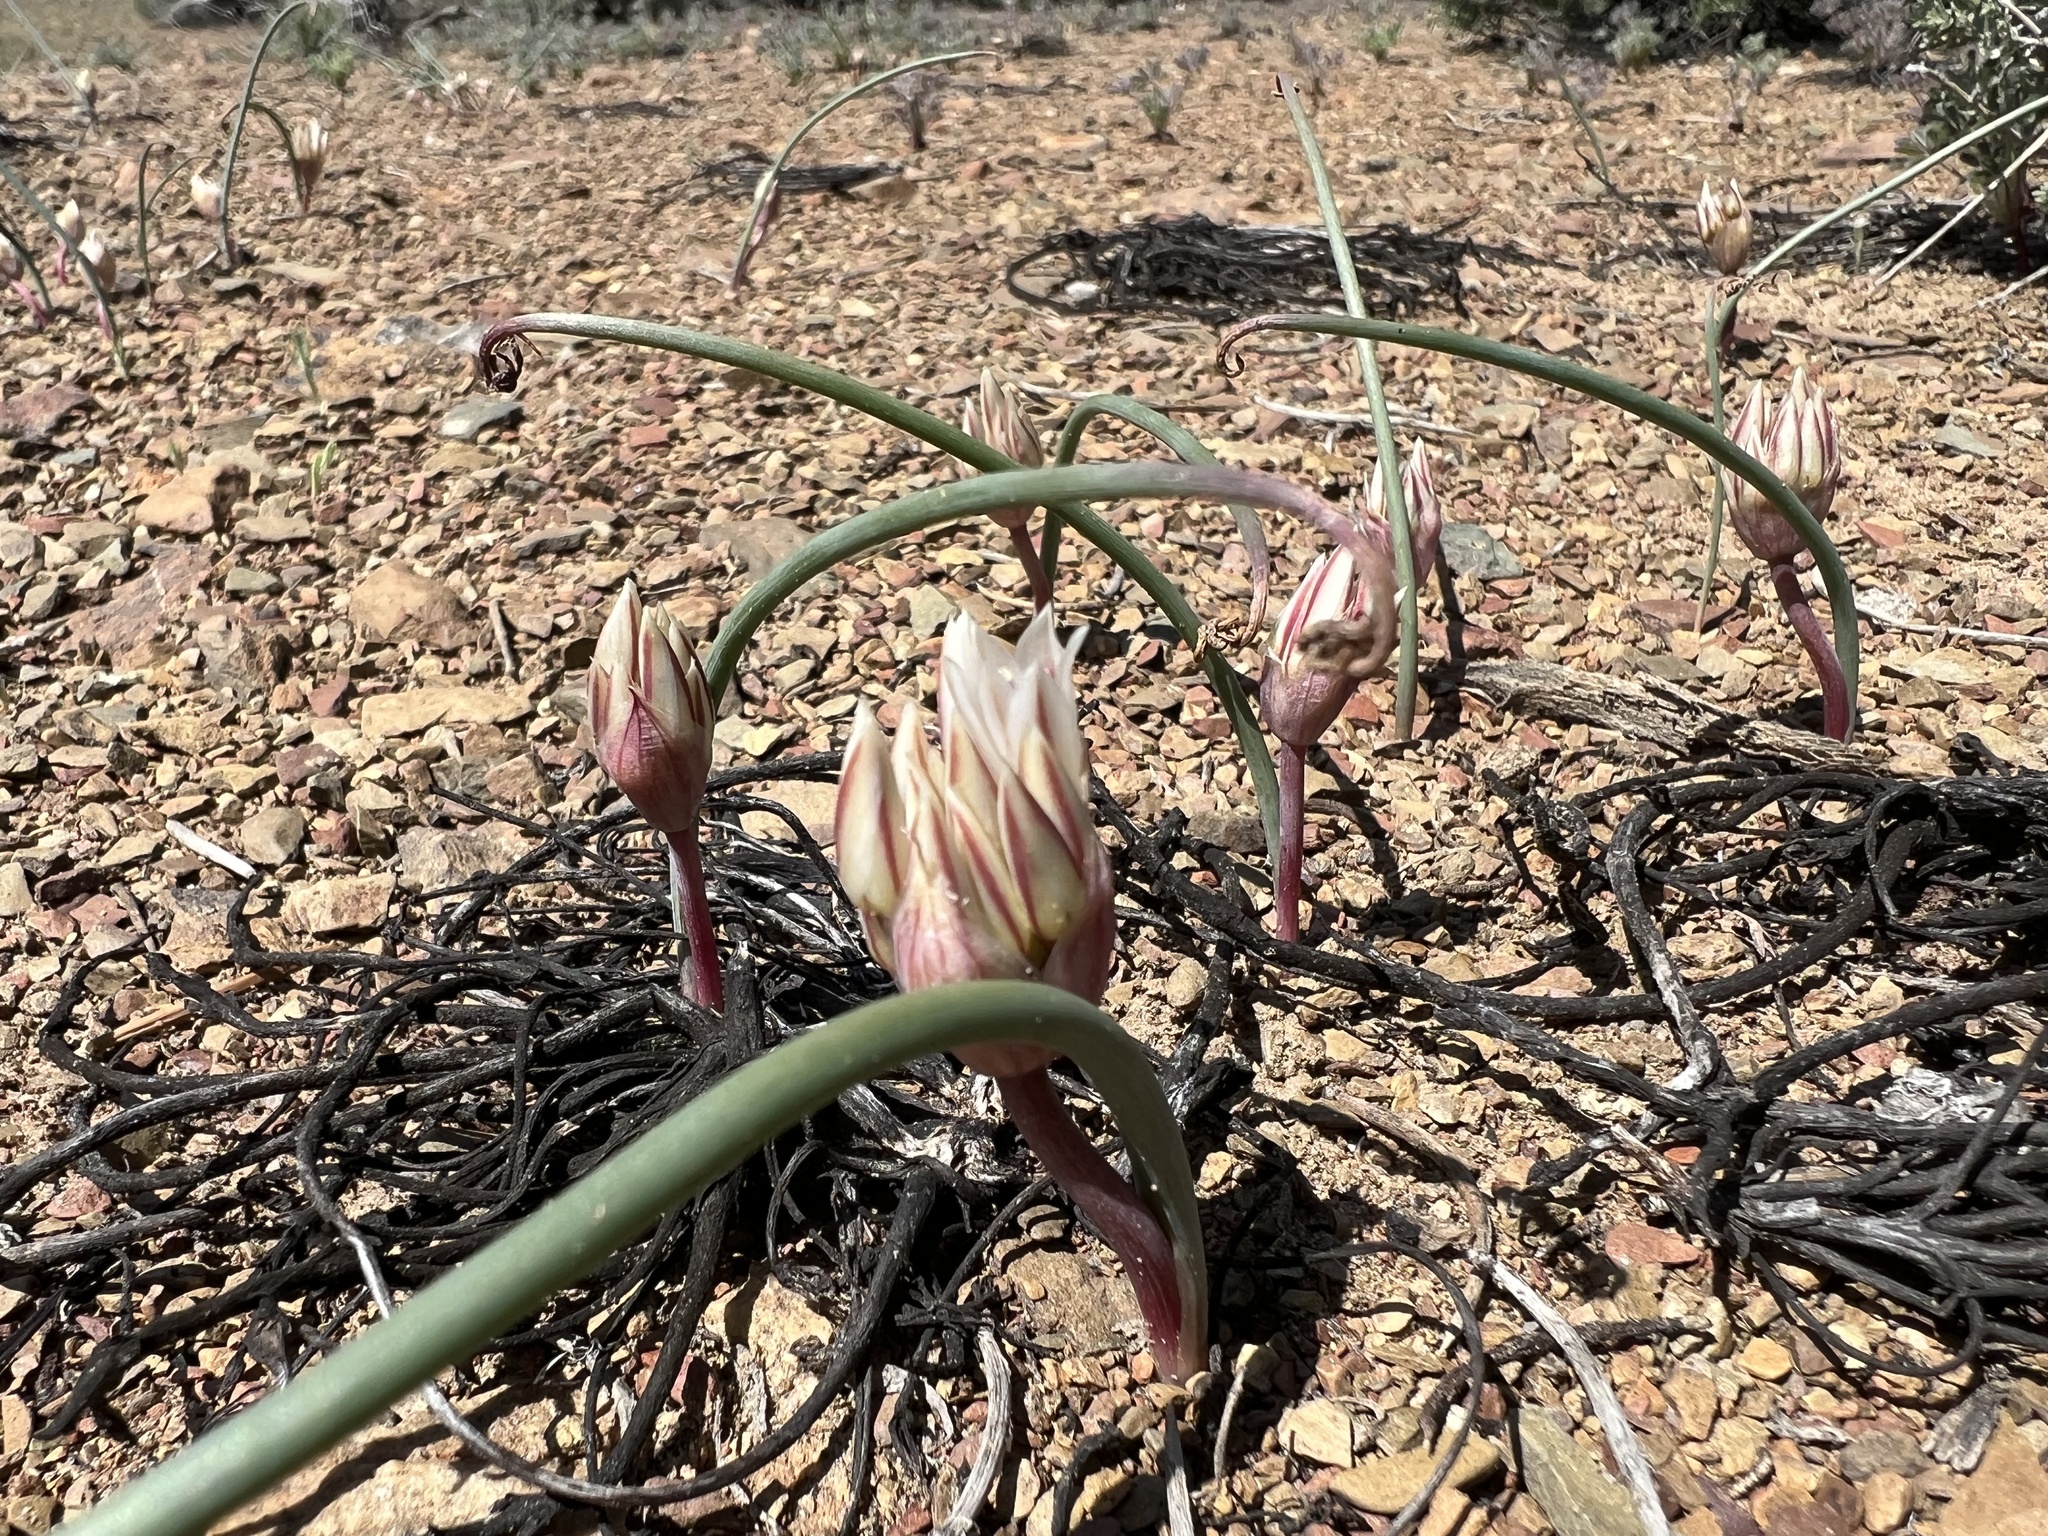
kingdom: Plantae
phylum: Tracheophyta
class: Liliopsida
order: Asparagales
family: Amaryllidaceae
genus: Allium
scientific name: Allium atrorubens
